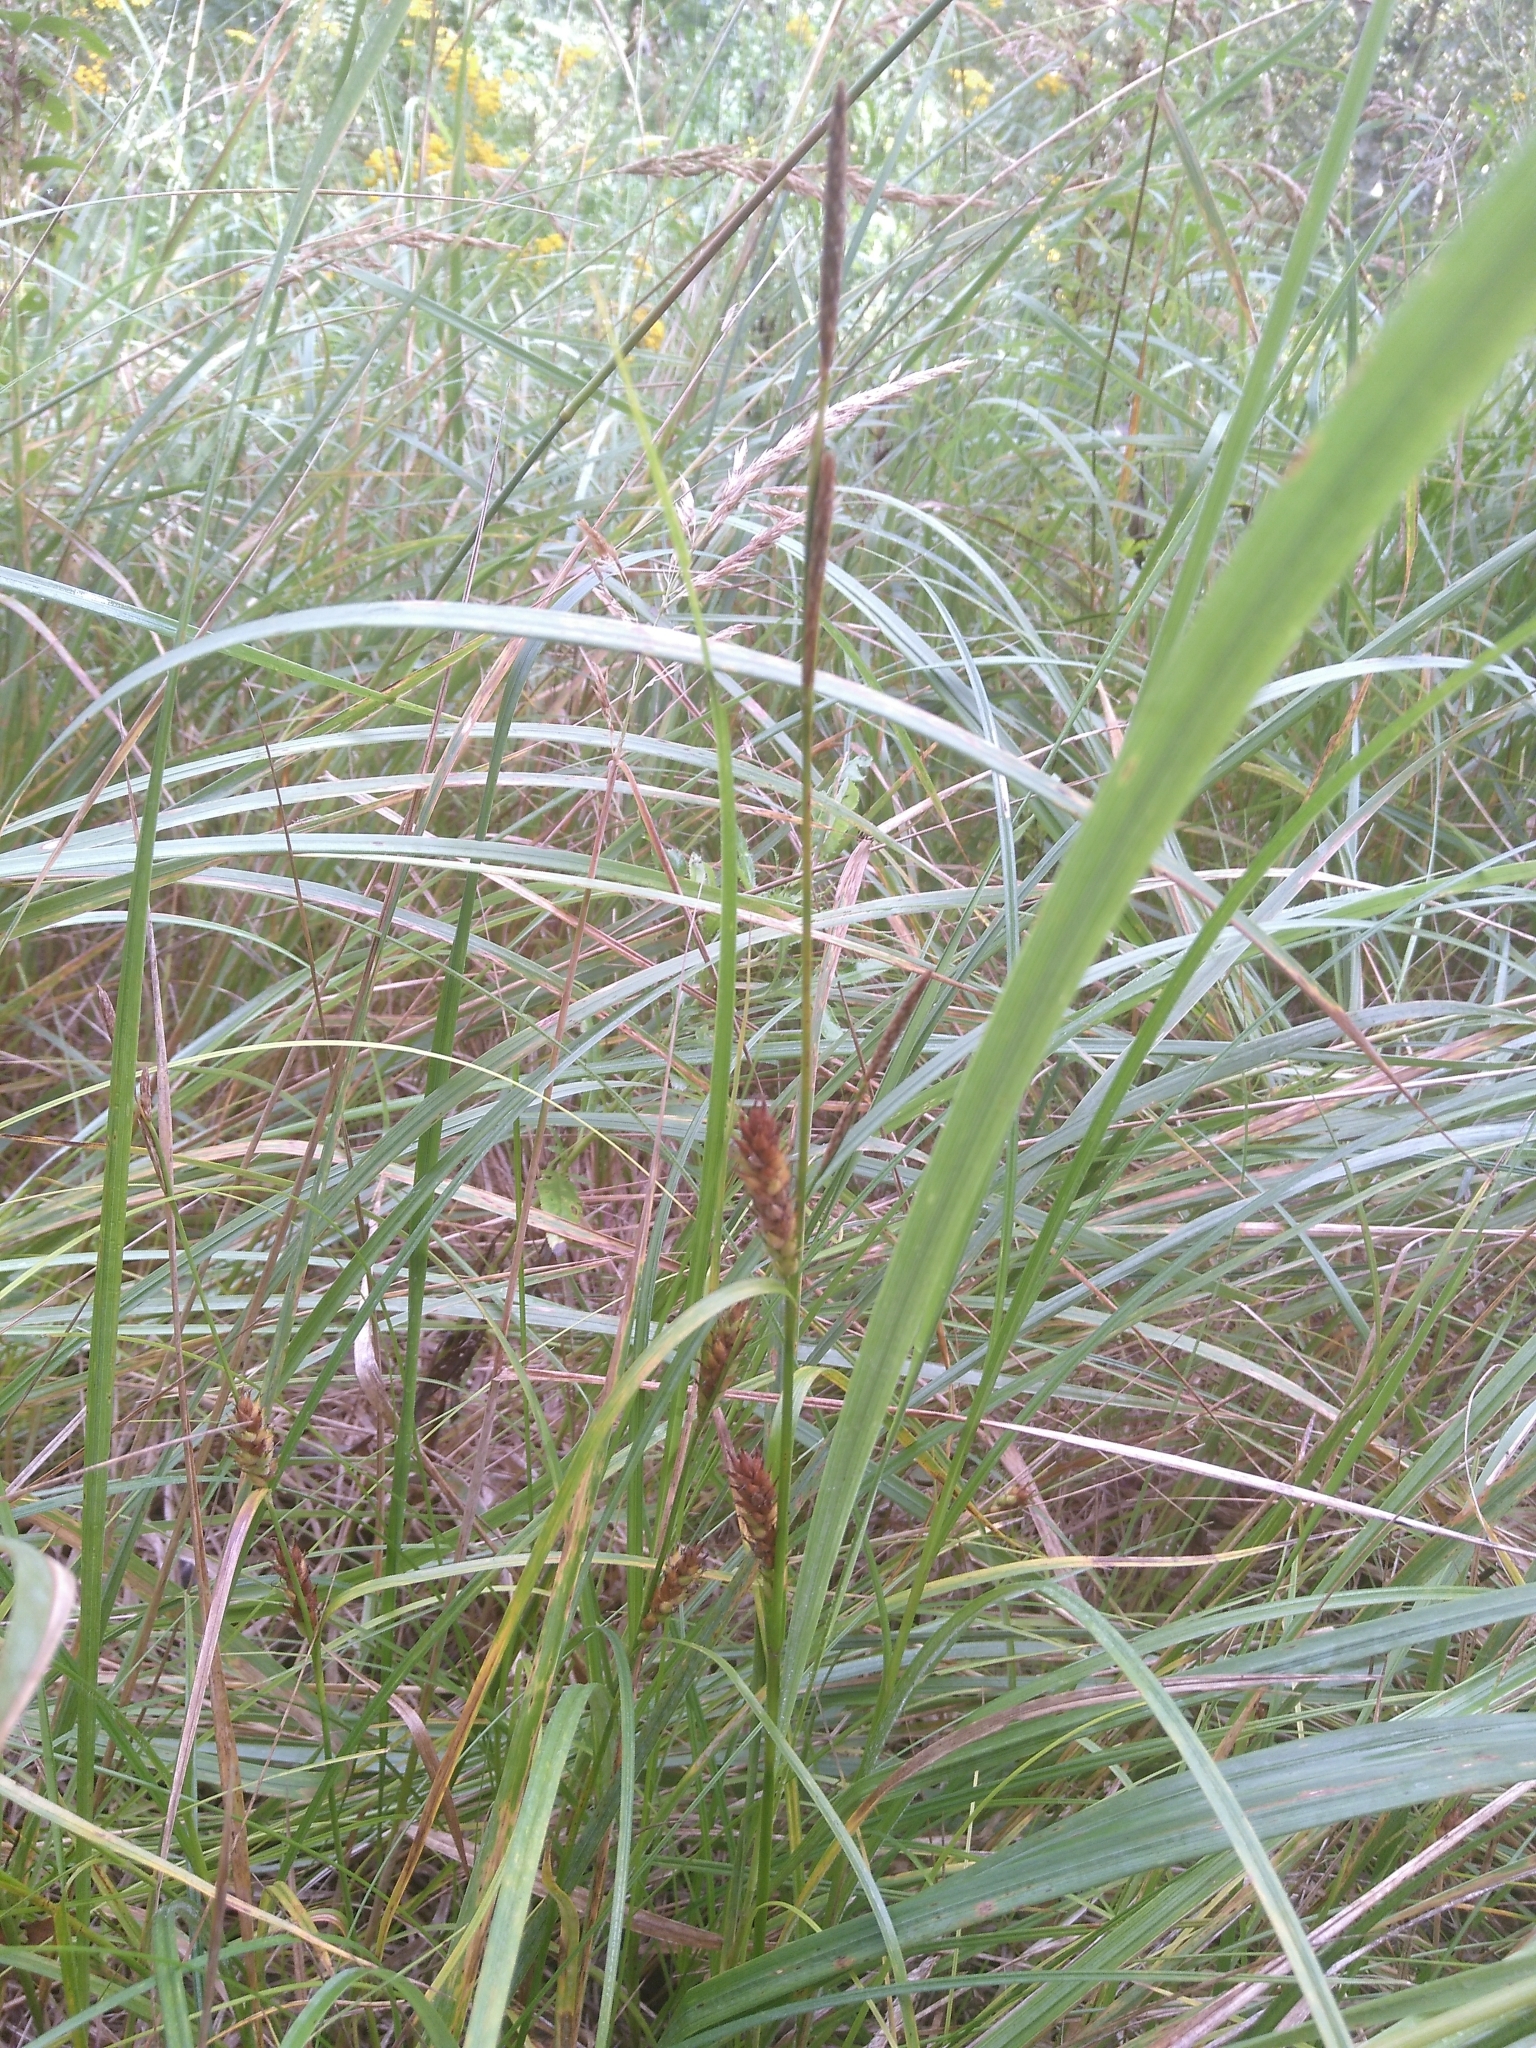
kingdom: Plantae
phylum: Tracheophyta
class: Liliopsida
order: Poales
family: Cyperaceae
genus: Carex
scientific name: Carex hirta
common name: Hairy sedge
